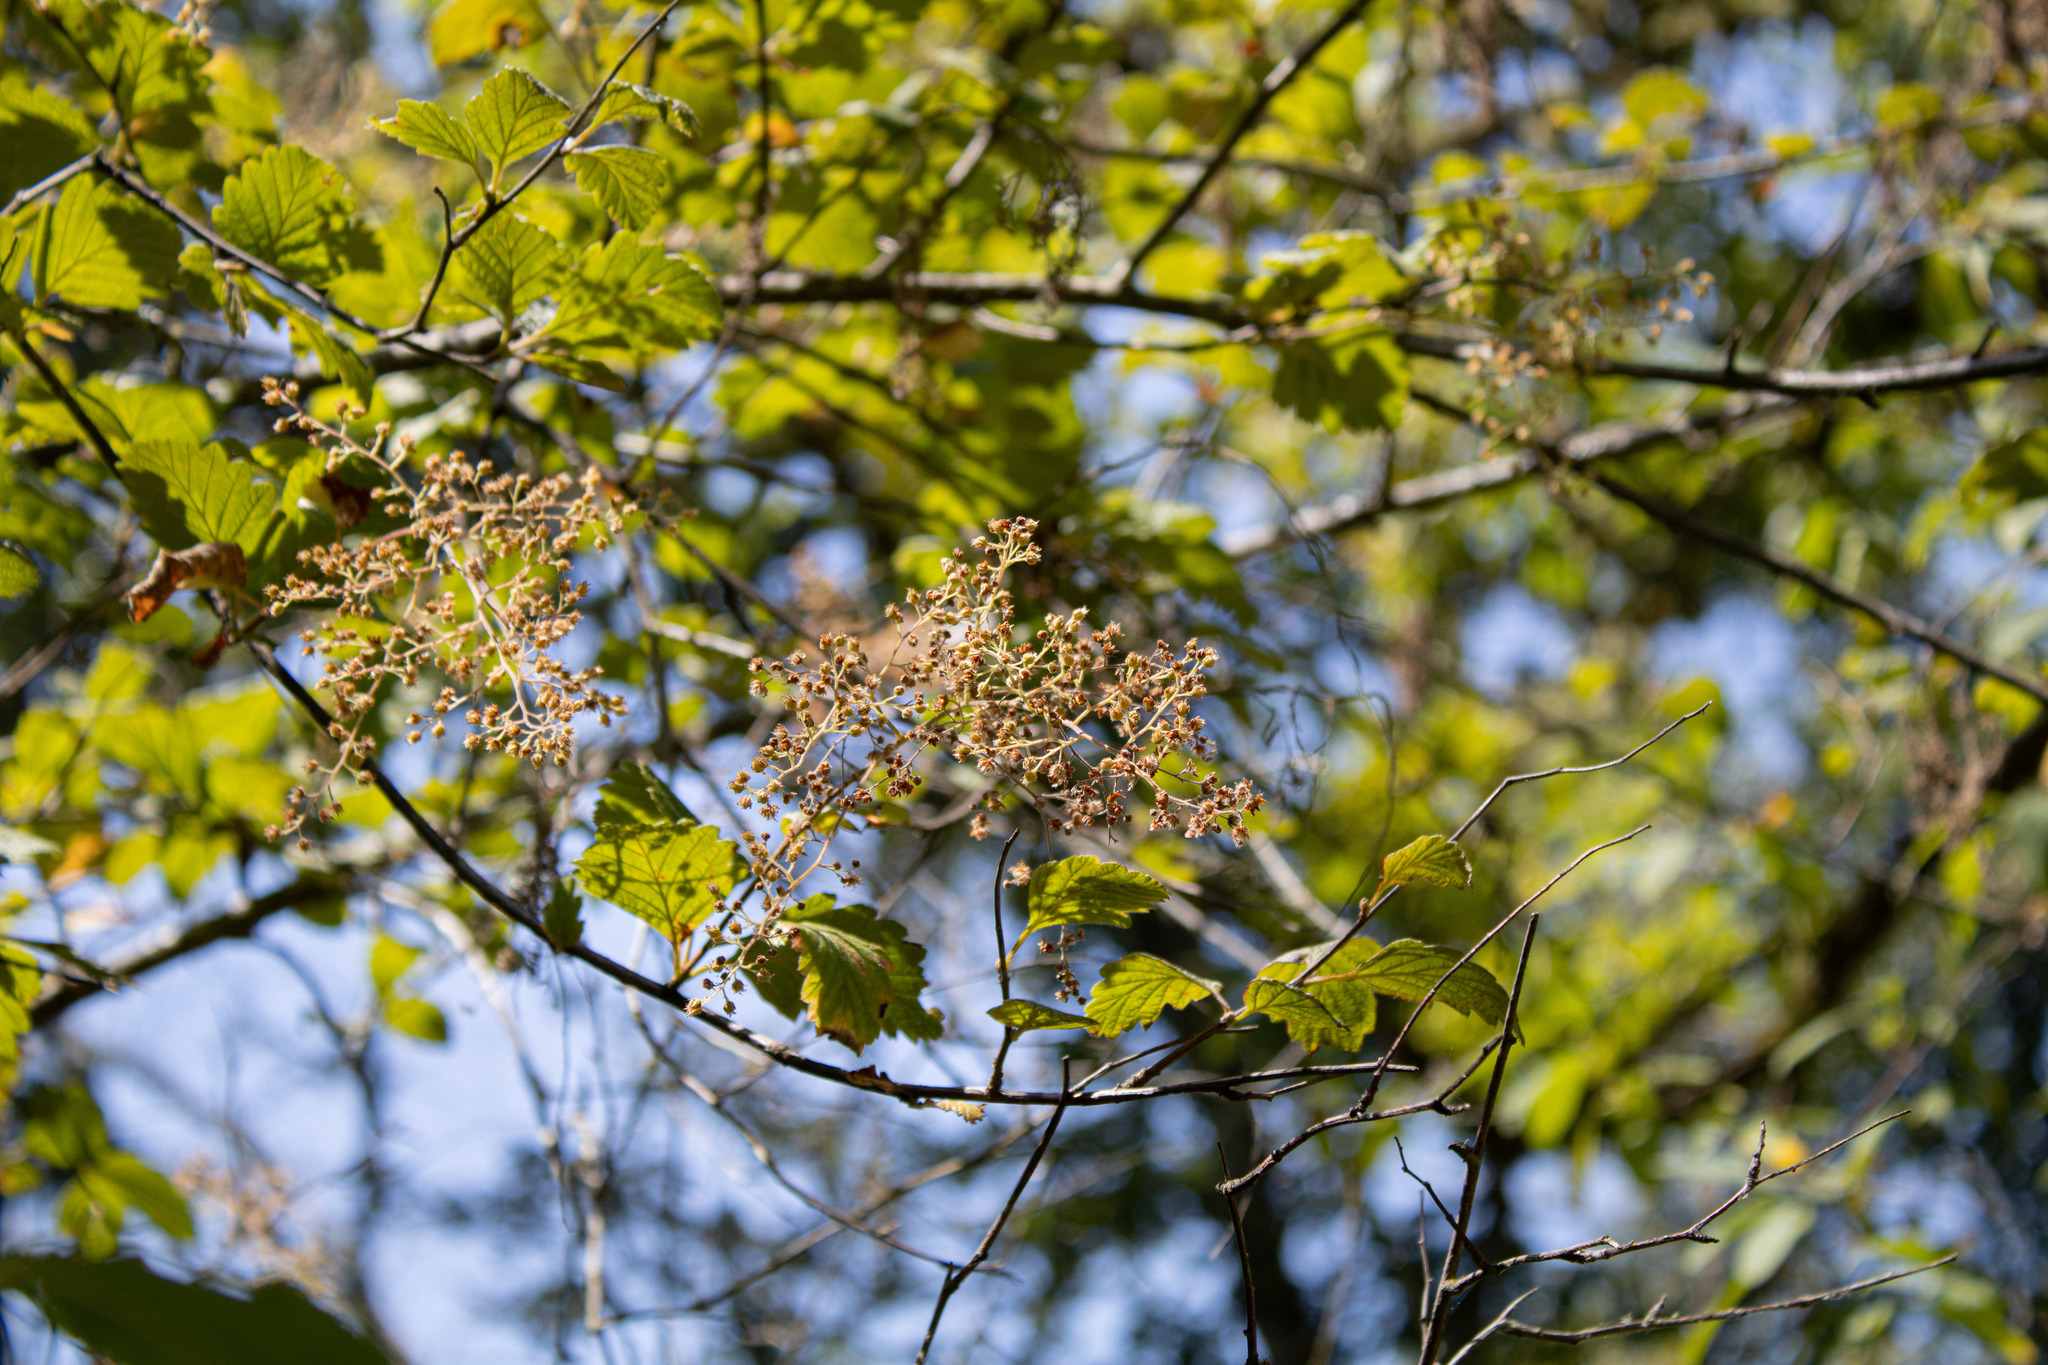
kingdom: Plantae
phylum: Tracheophyta
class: Magnoliopsida
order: Rosales
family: Rosaceae
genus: Holodiscus
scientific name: Holodiscus discolor
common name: Oceanspray
